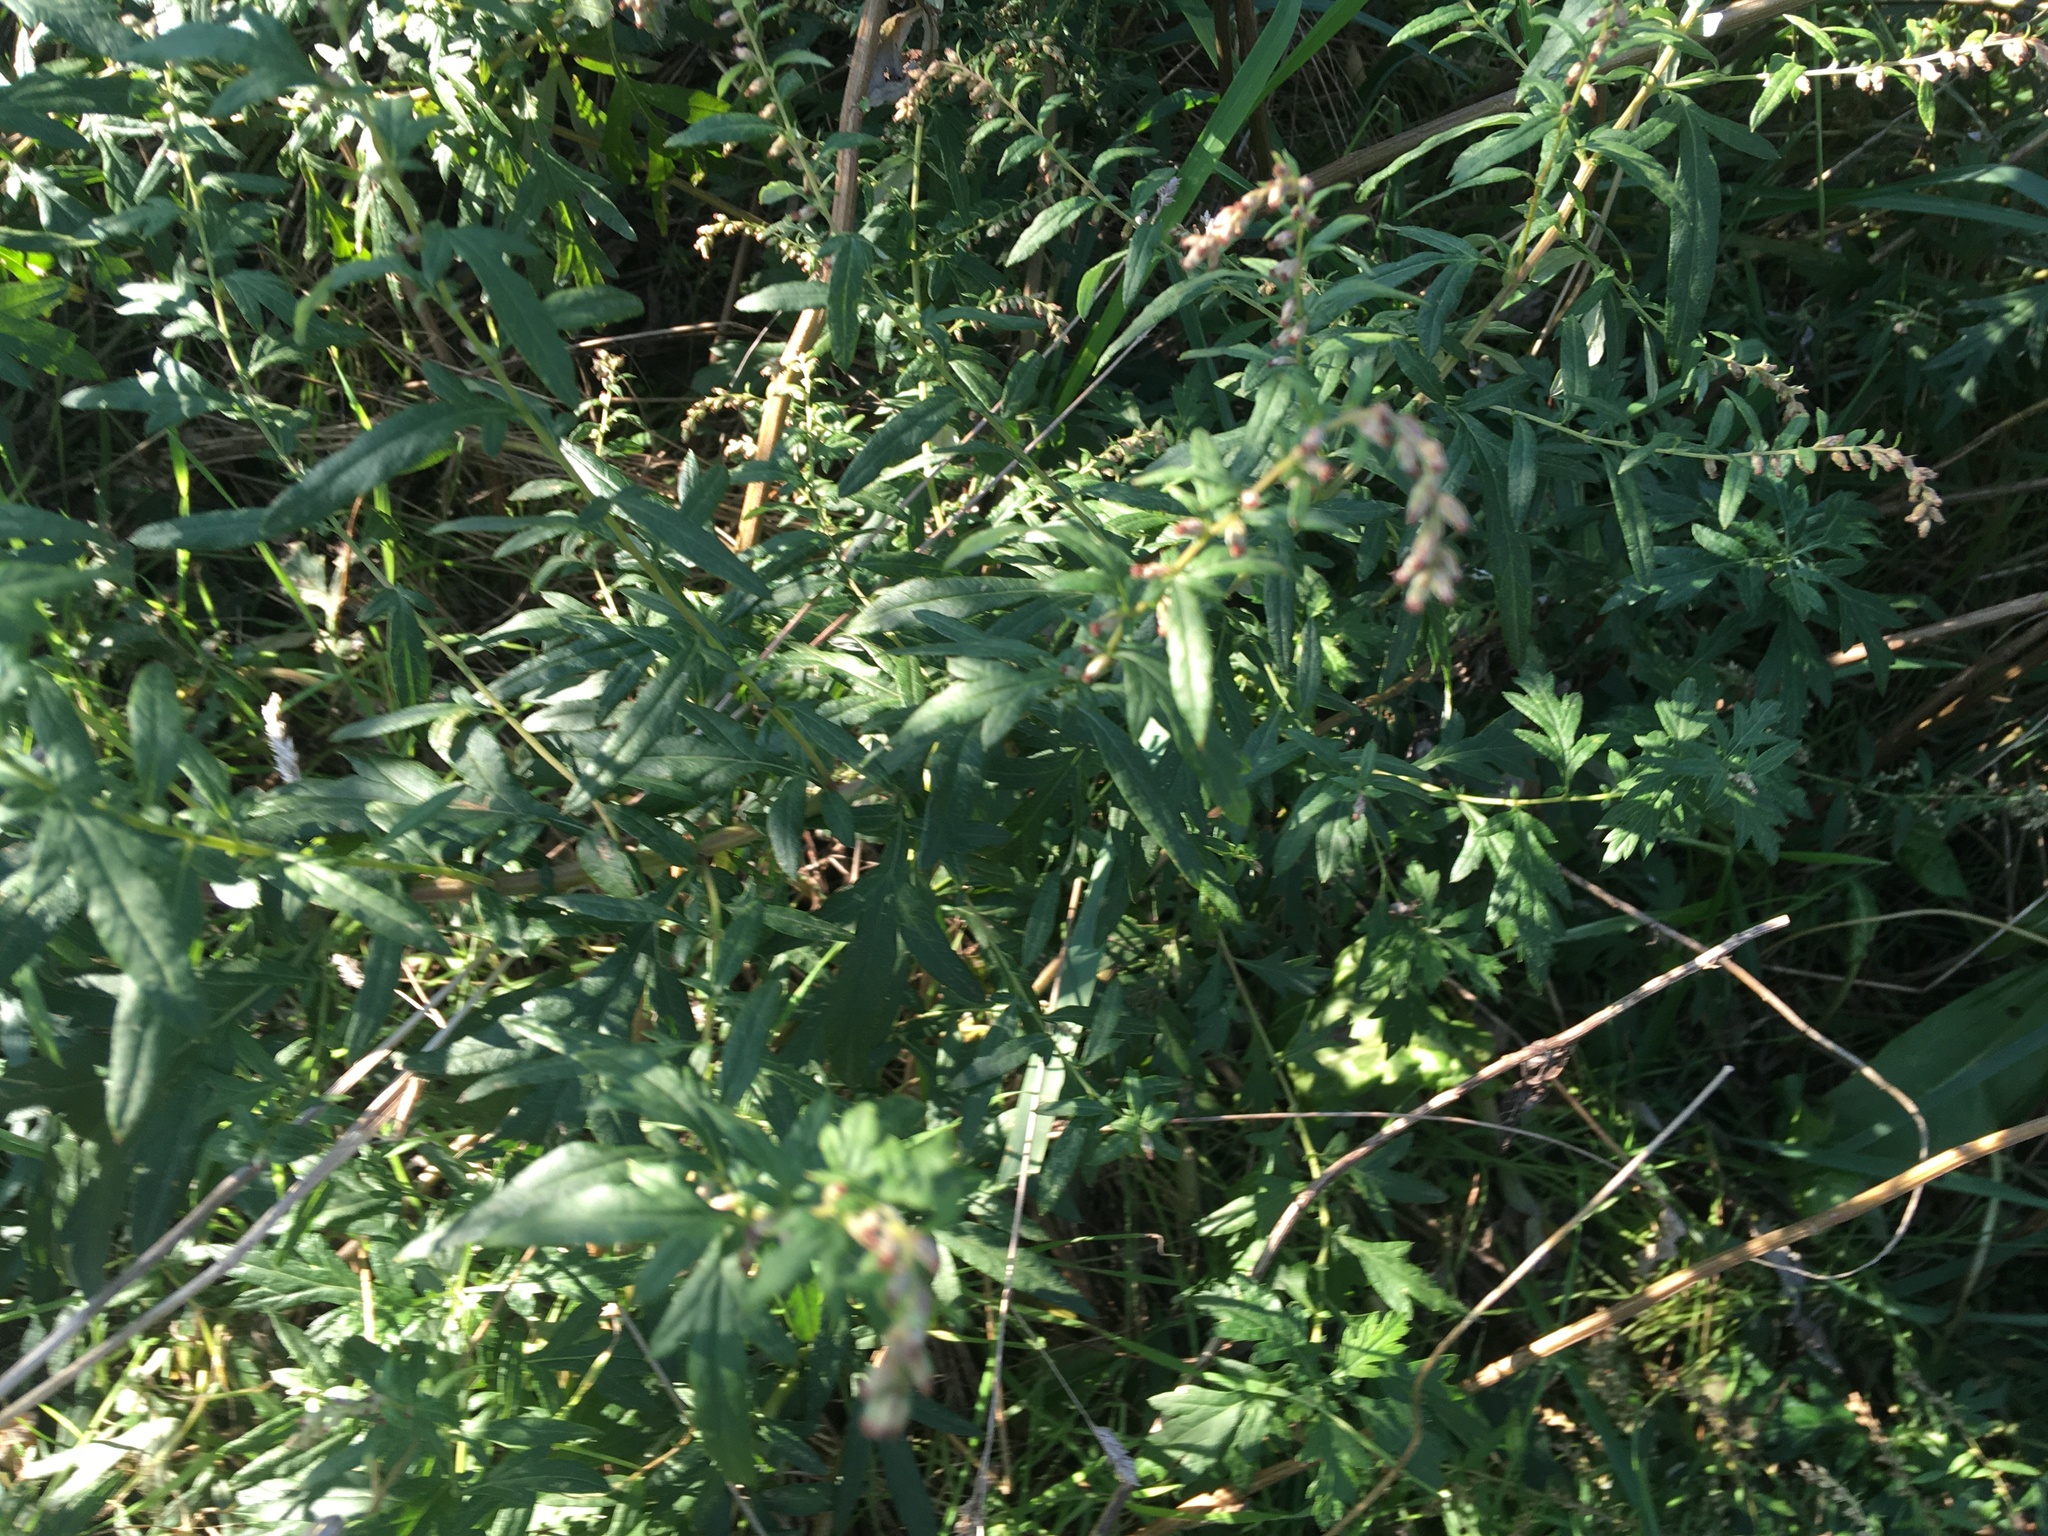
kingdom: Plantae
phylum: Tracheophyta
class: Magnoliopsida
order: Asterales
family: Asteraceae
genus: Artemisia
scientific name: Artemisia vulgaris
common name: Mugwort
